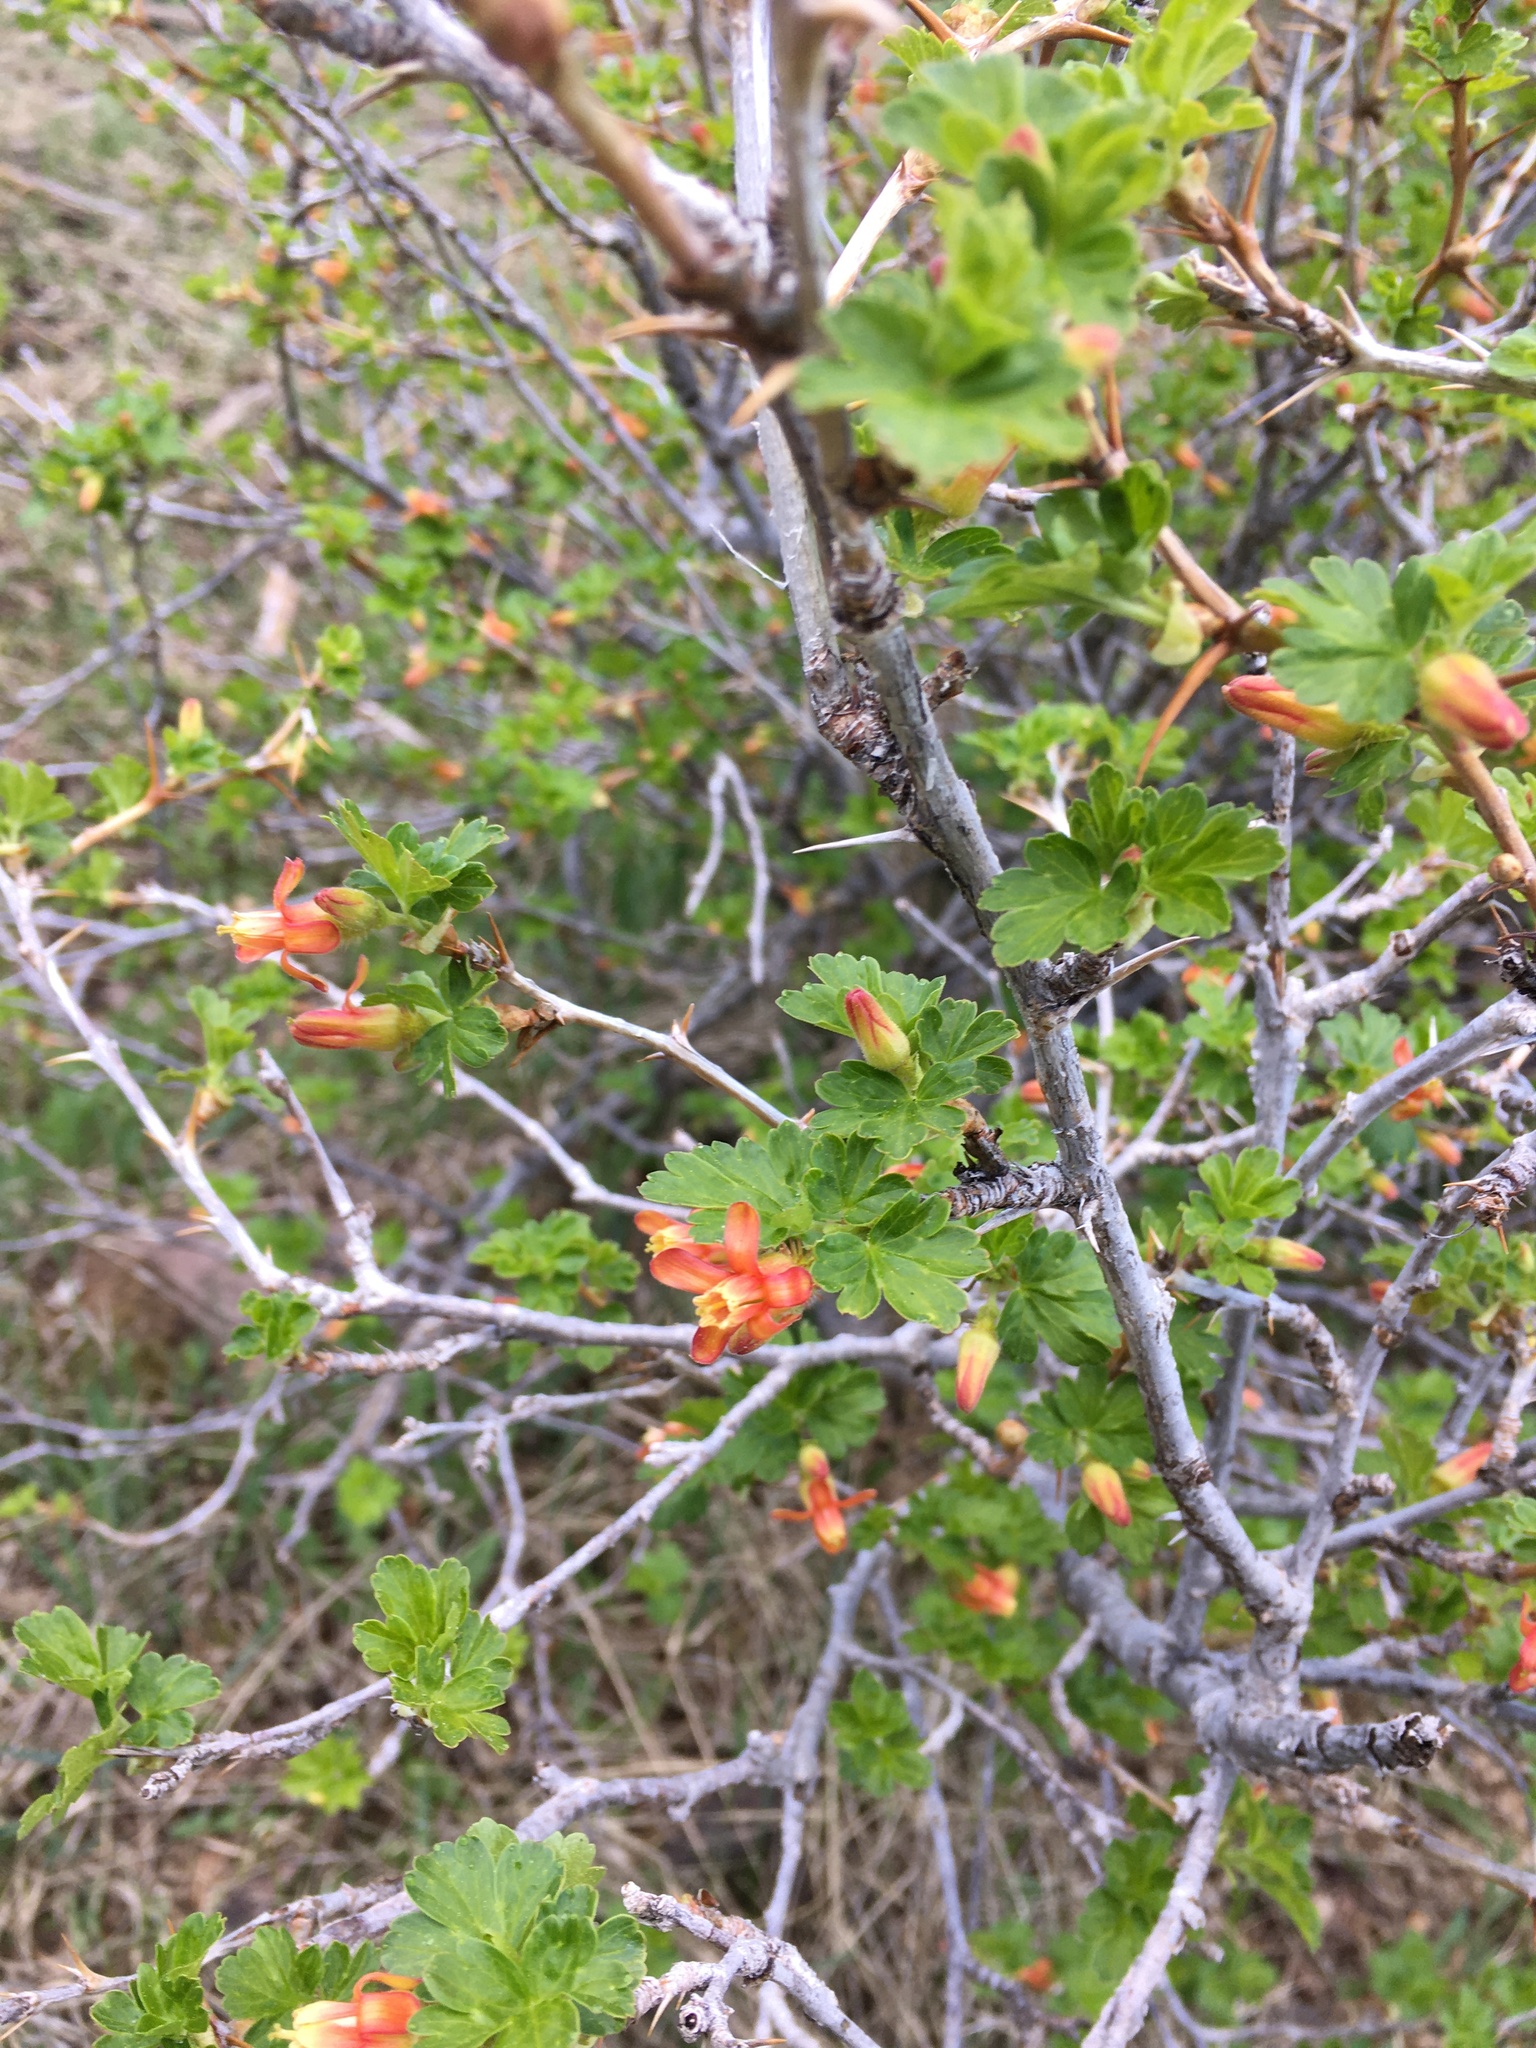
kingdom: Plantae
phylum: Tracheophyta
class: Magnoliopsida
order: Saxifragales
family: Grossulariaceae
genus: Ribes
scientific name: Ribes pinetorum
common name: Orange gooseberry
